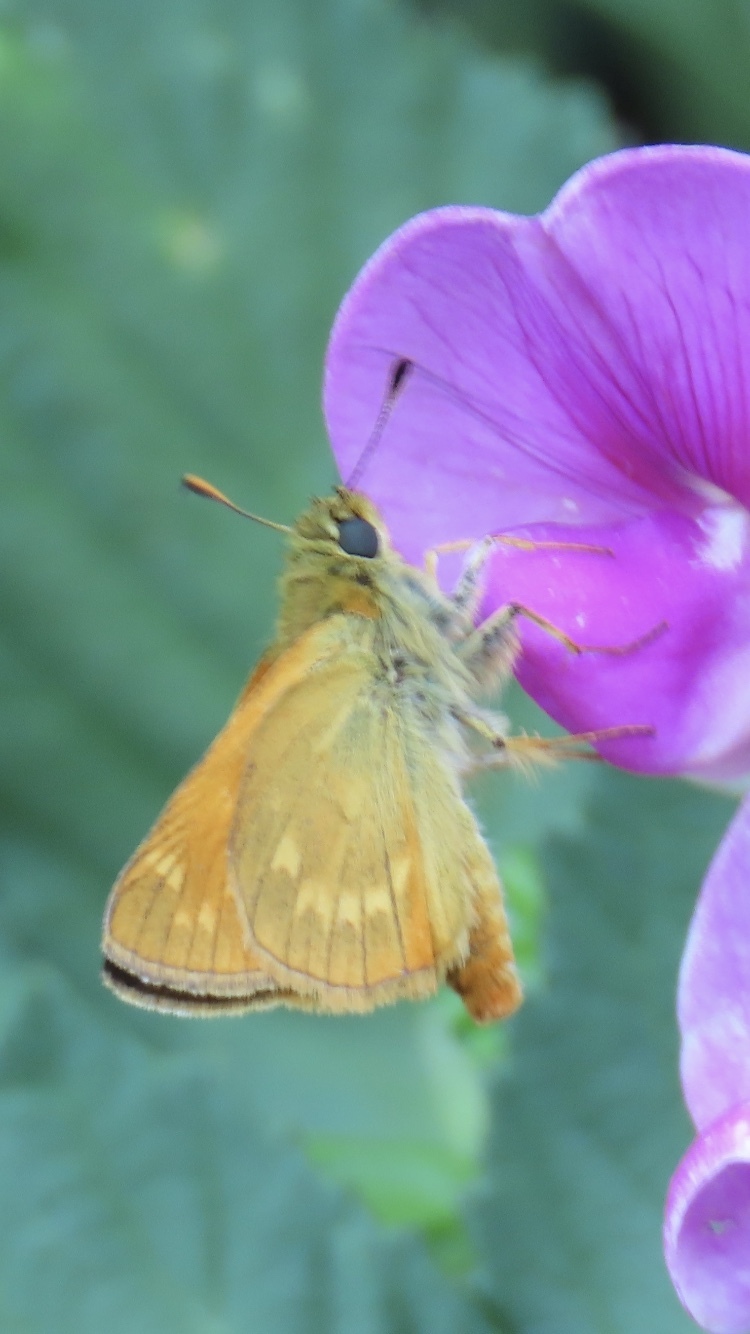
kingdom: Animalia
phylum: Arthropoda
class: Insecta
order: Lepidoptera
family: Hesperiidae
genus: Ochlodes
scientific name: Ochlodes venata
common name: Large skipper
